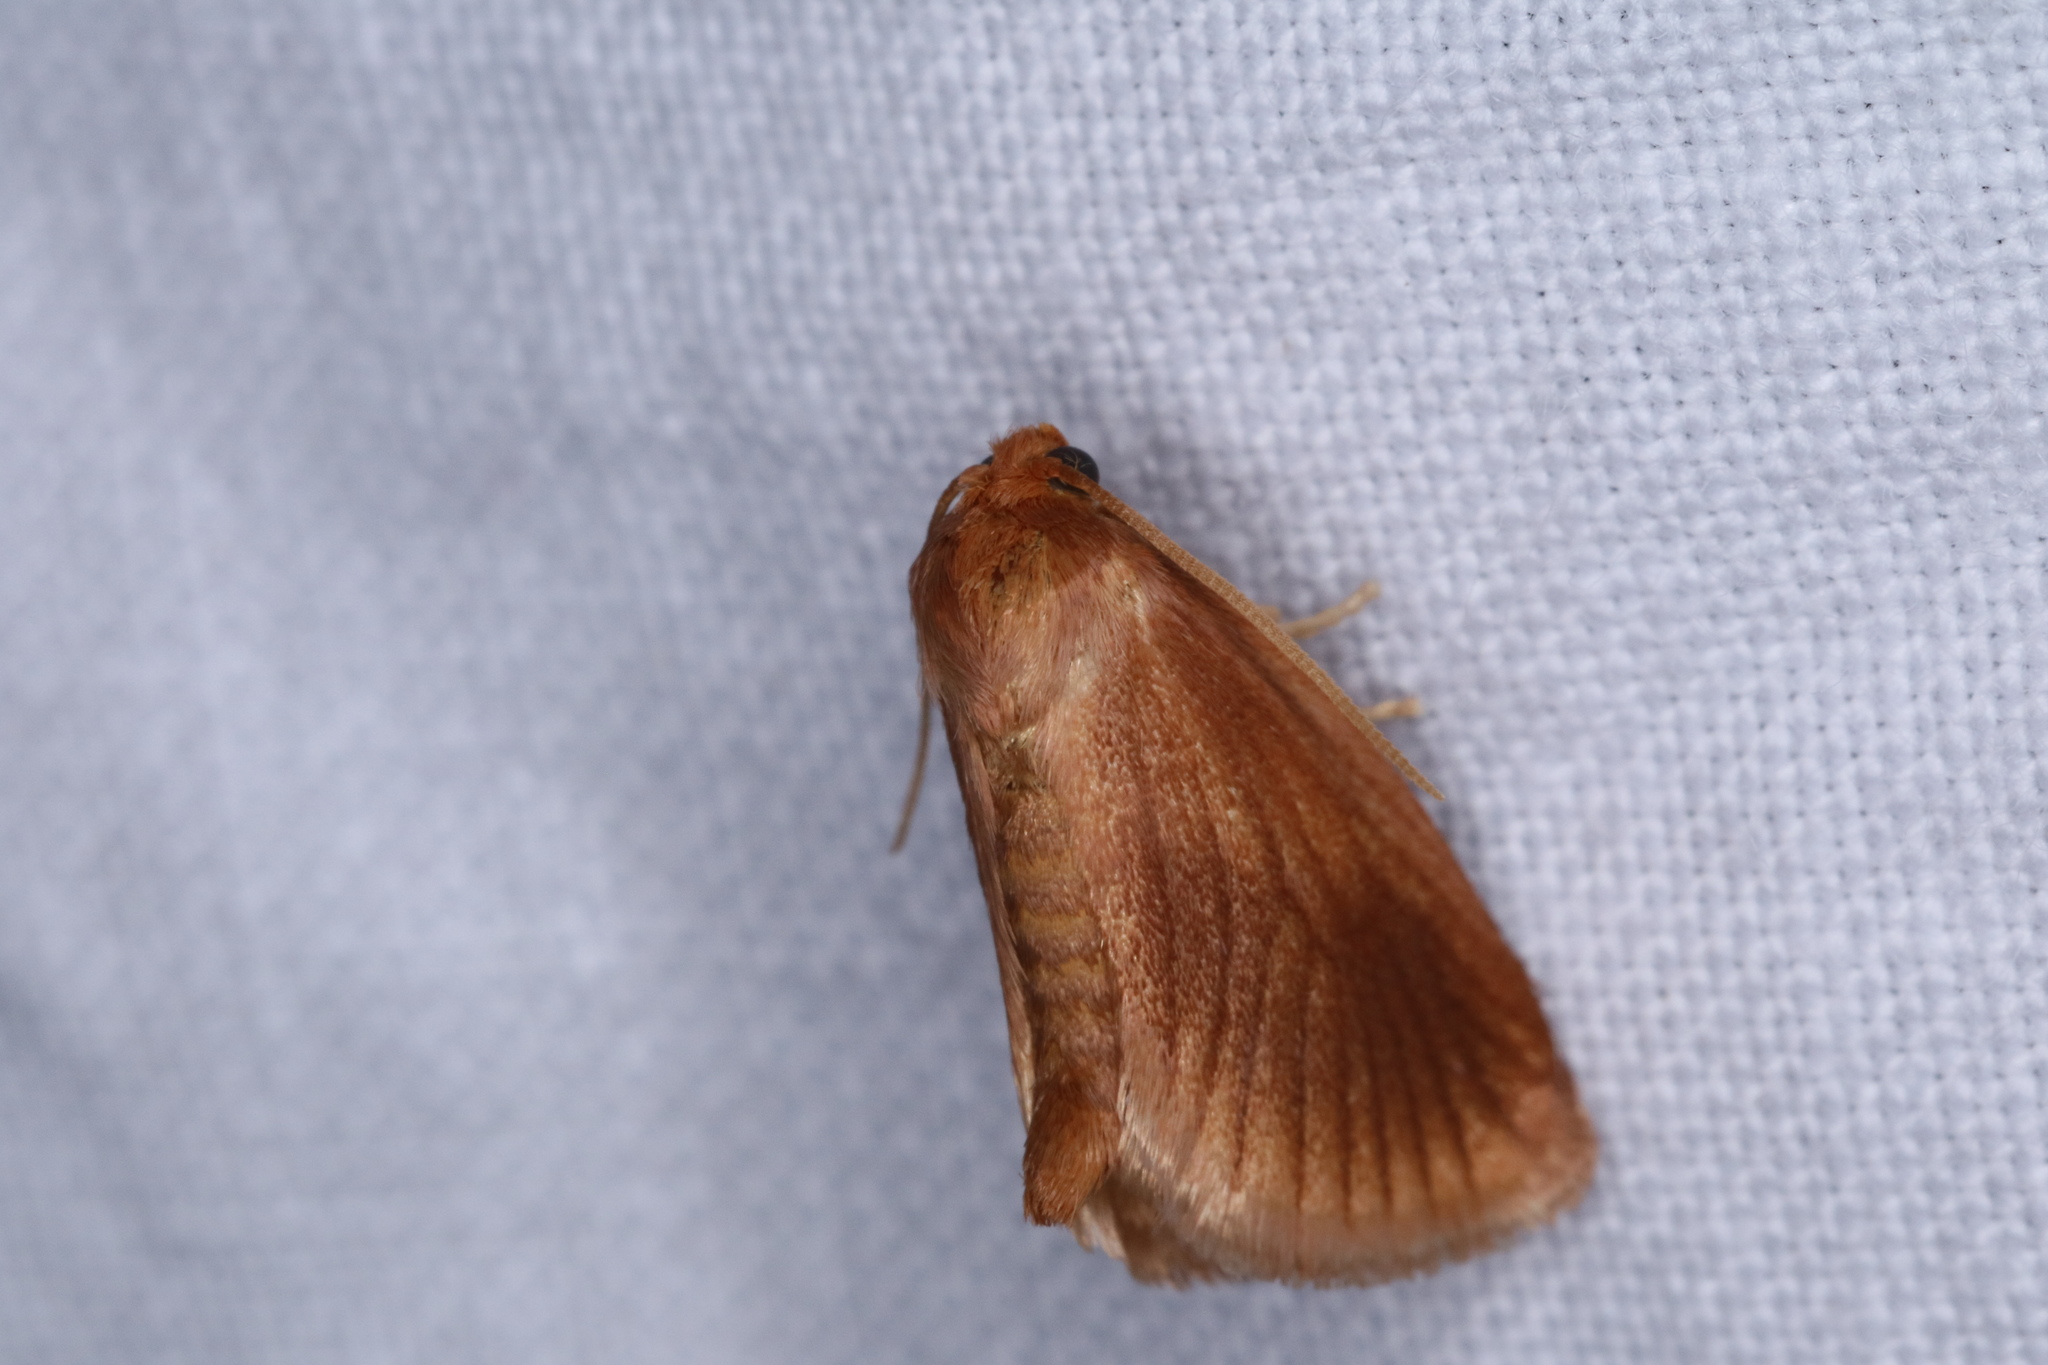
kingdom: Animalia
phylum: Arthropoda
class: Insecta
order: Lepidoptera
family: Limacodidae
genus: Tortricidia
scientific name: Tortricidia testacea
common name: Early button slug moth
